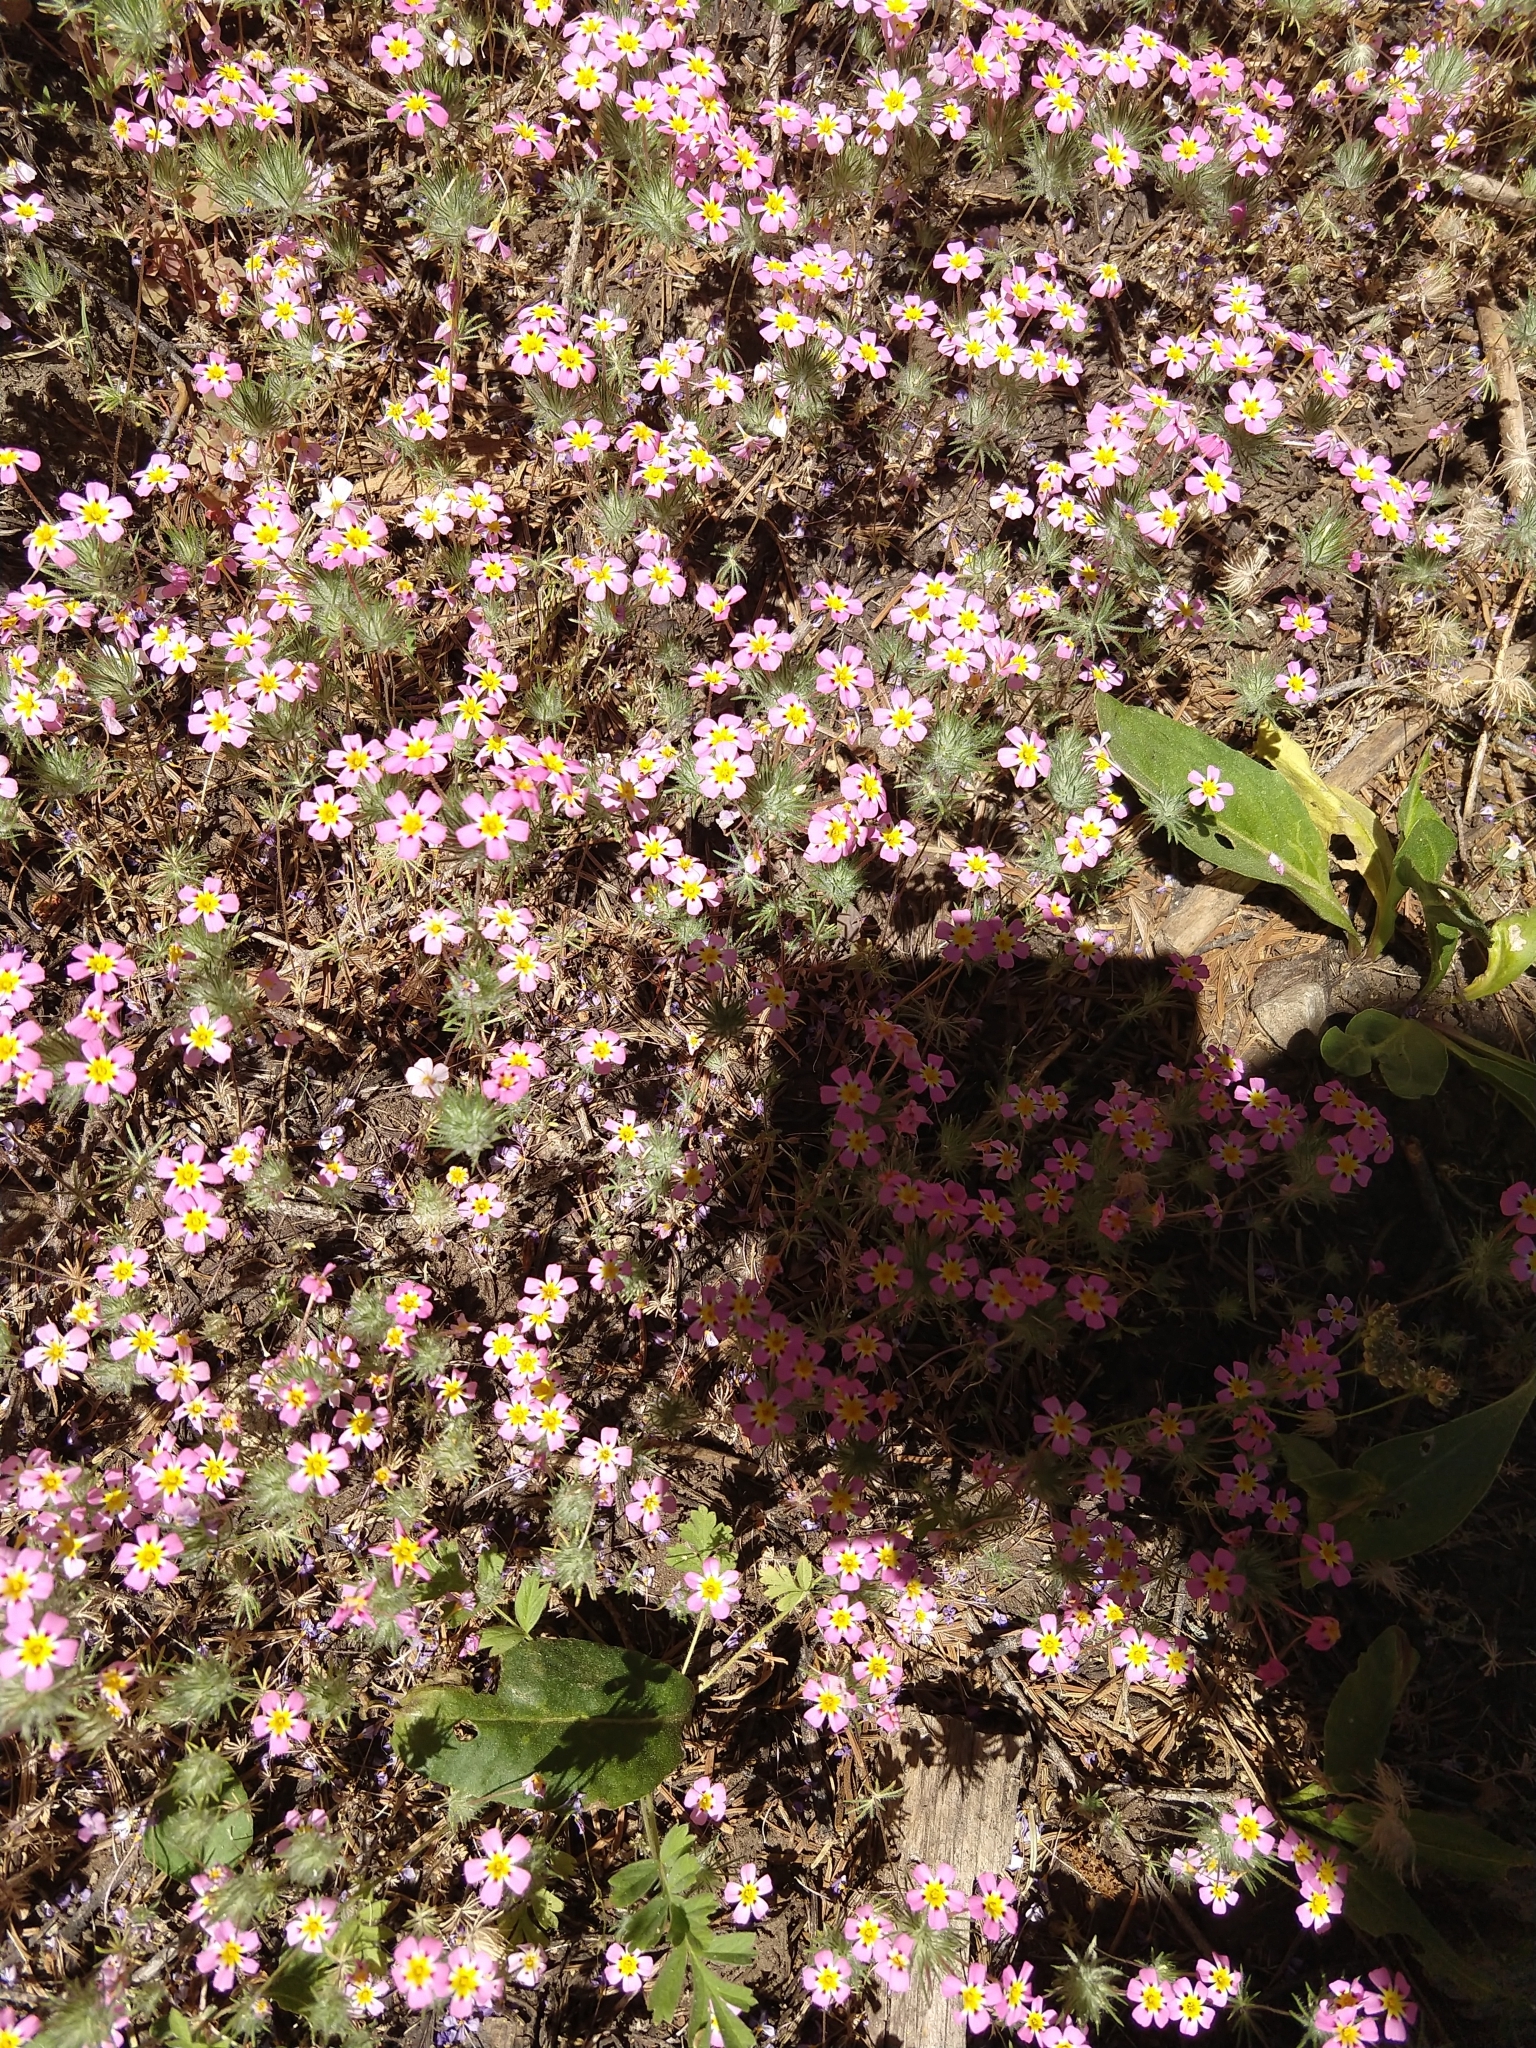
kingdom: Plantae
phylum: Tracheophyta
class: Magnoliopsida
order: Ericales
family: Polemoniaceae
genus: Leptosiphon
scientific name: Leptosiphon ciliatus
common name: Whiskerbrush
